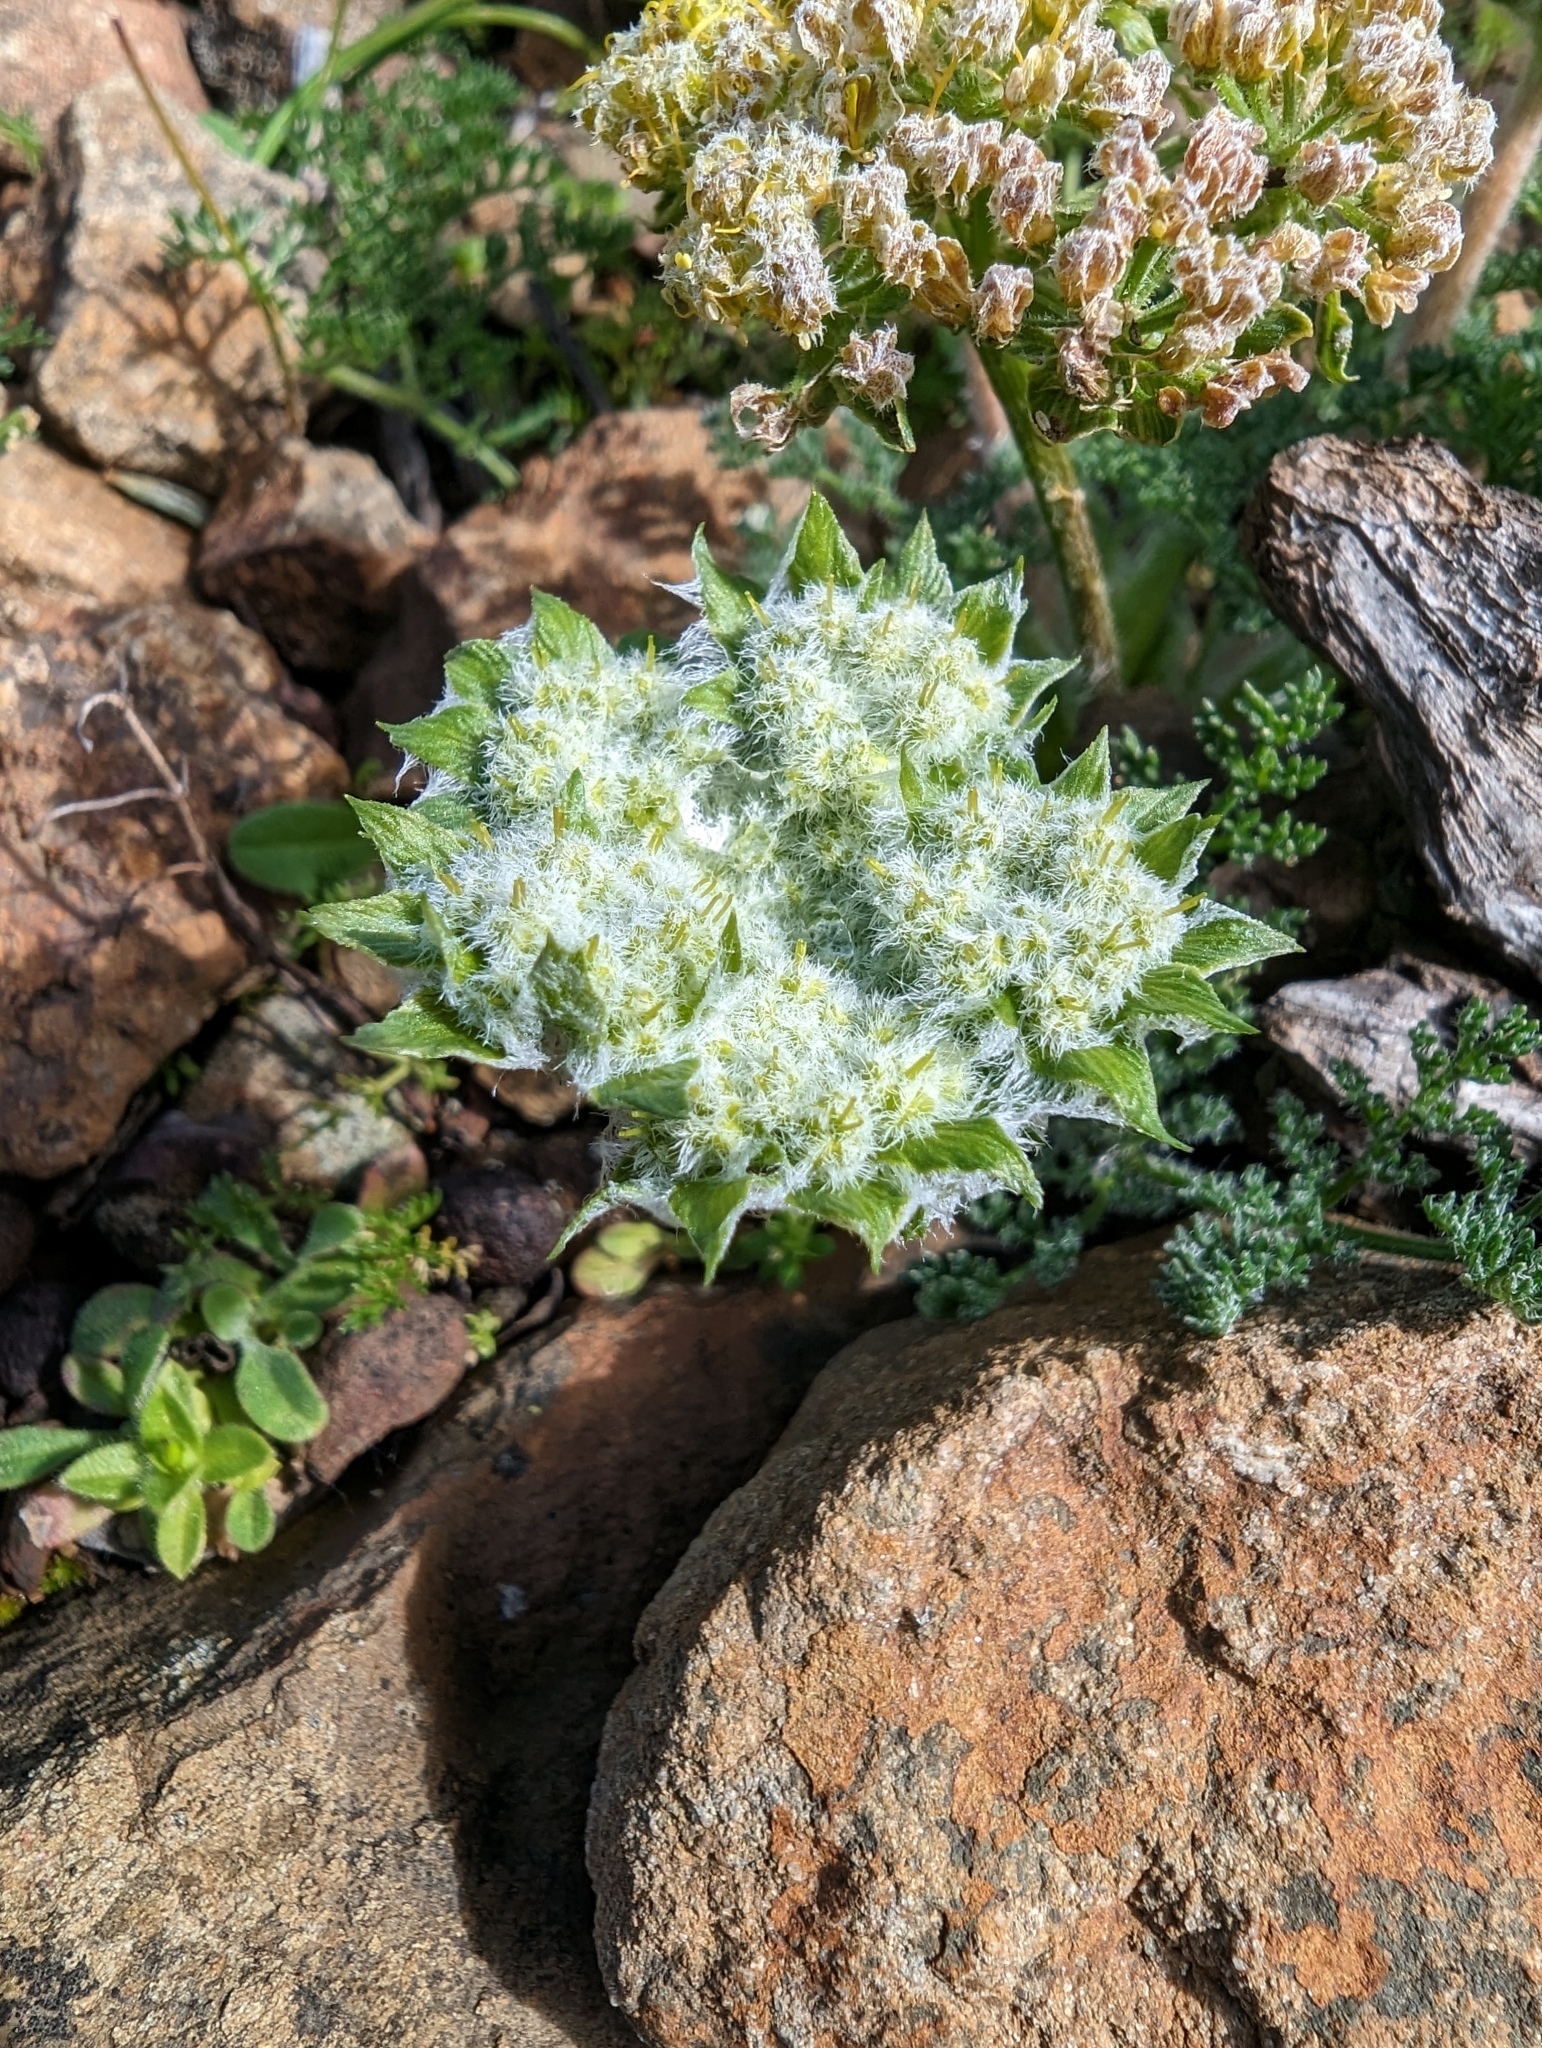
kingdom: Plantae
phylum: Tracheophyta
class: Magnoliopsida
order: Apiales
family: Apiaceae
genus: Lomatium
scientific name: Lomatium dasycarpum
